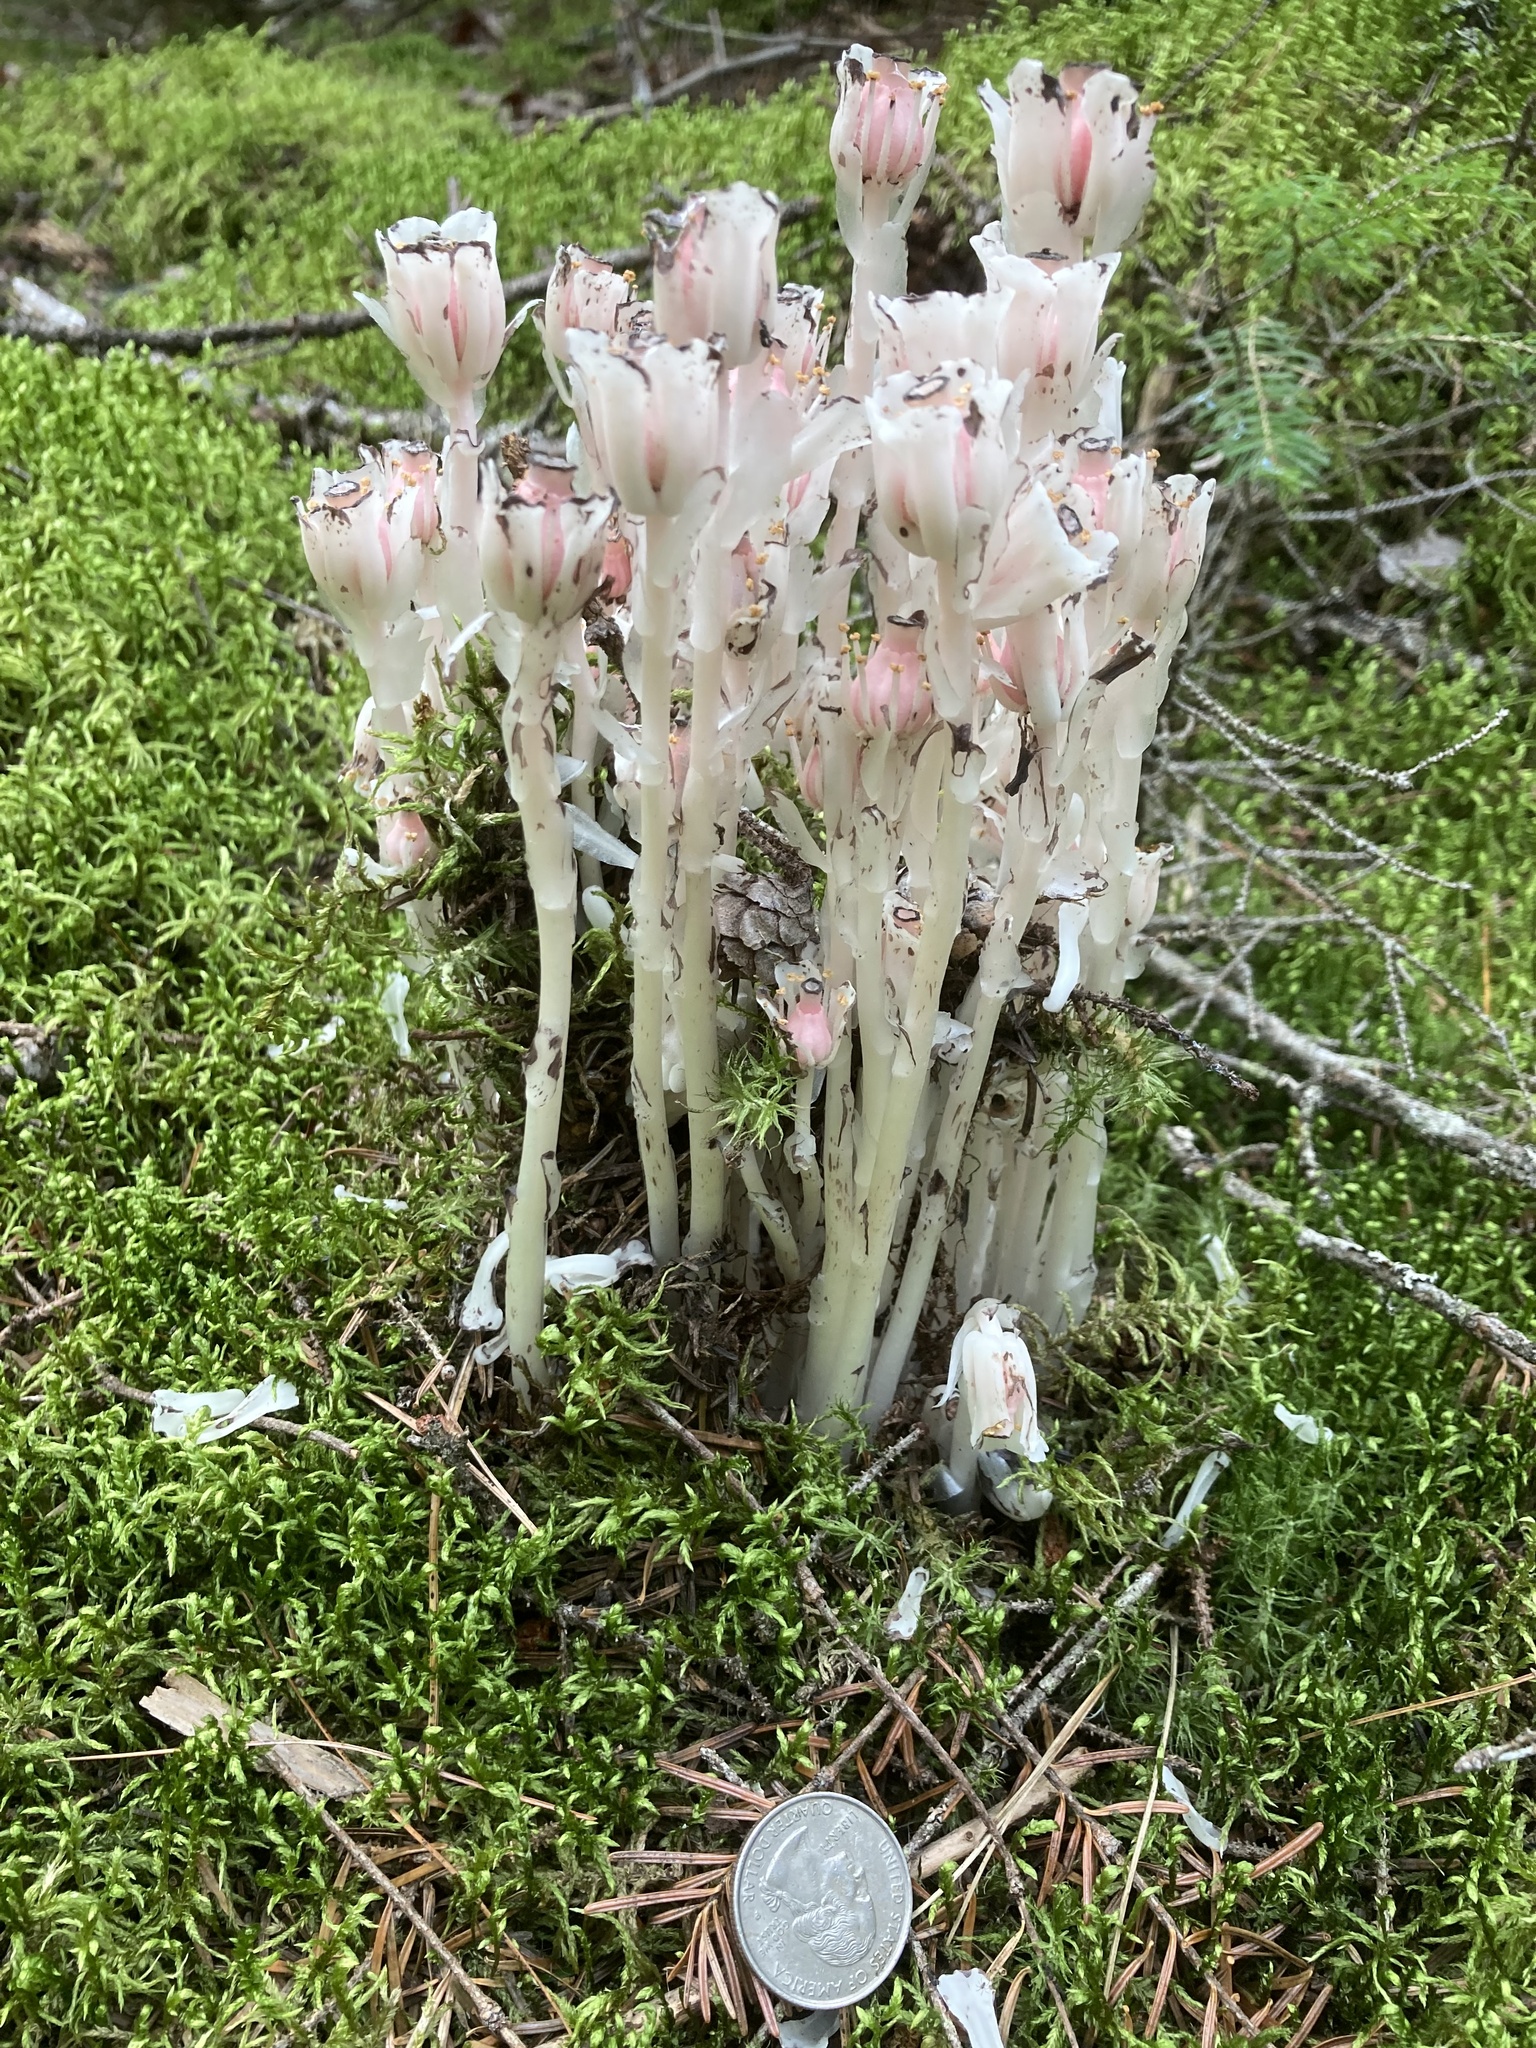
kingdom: Plantae
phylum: Tracheophyta
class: Magnoliopsida
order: Ericales
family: Ericaceae
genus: Monotropa
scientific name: Monotropa uniflora
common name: Convulsion root
